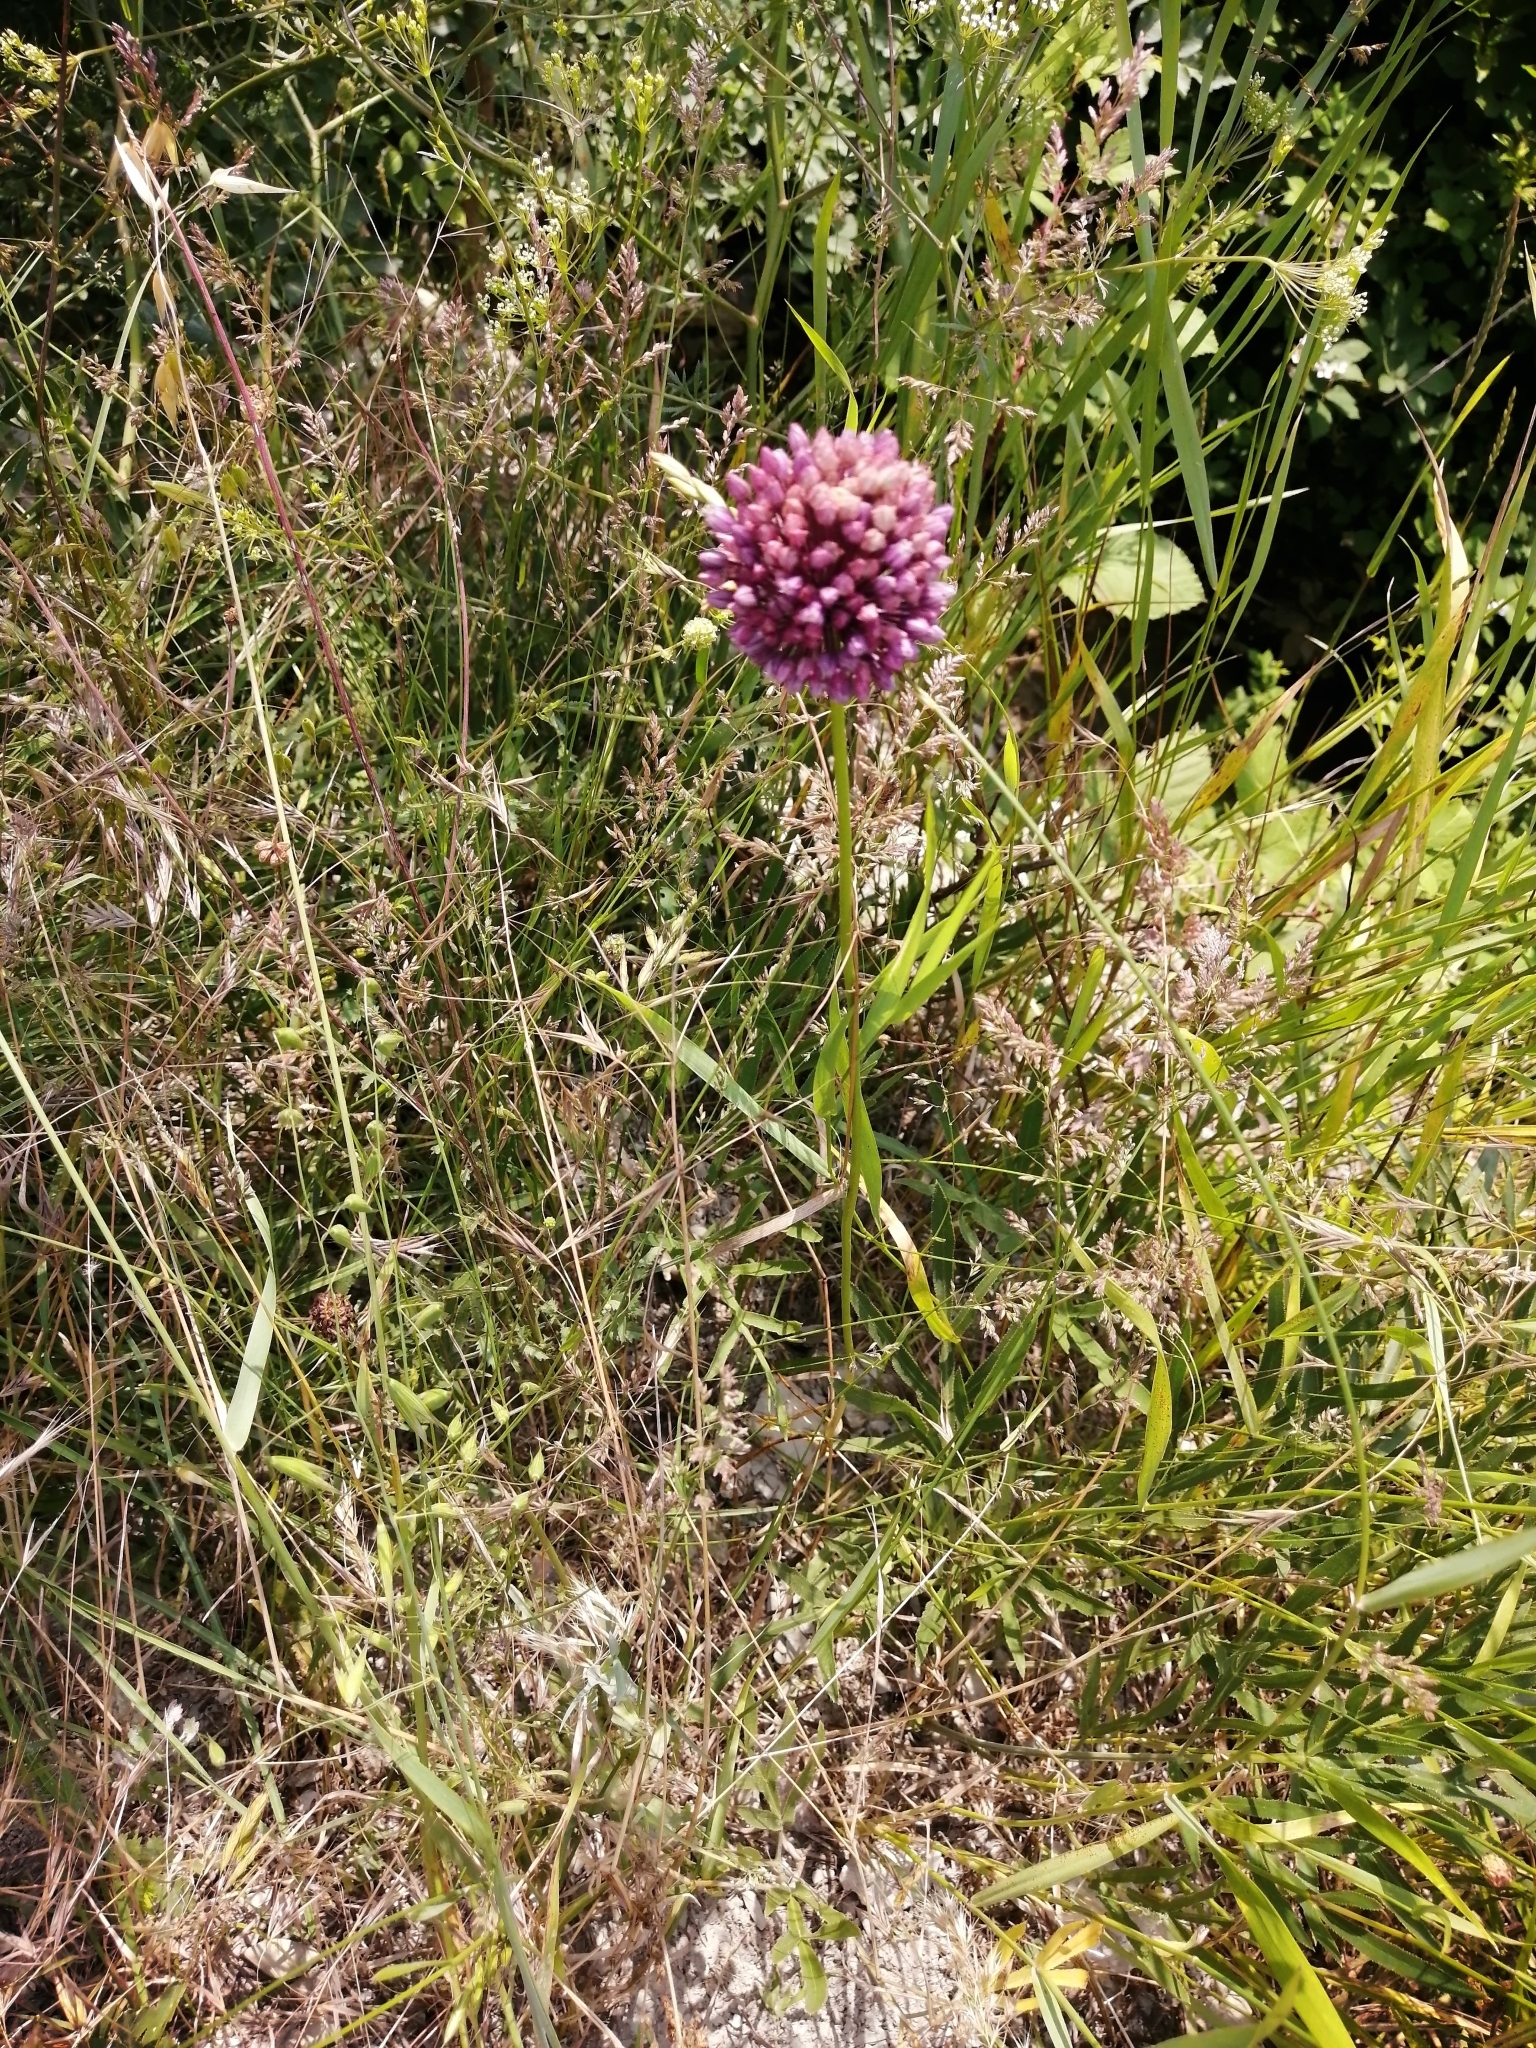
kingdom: Plantae
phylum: Tracheophyta
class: Liliopsida
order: Asparagales
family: Amaryllidaceae
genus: Allium
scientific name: Allium rotundum
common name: Sand leek
